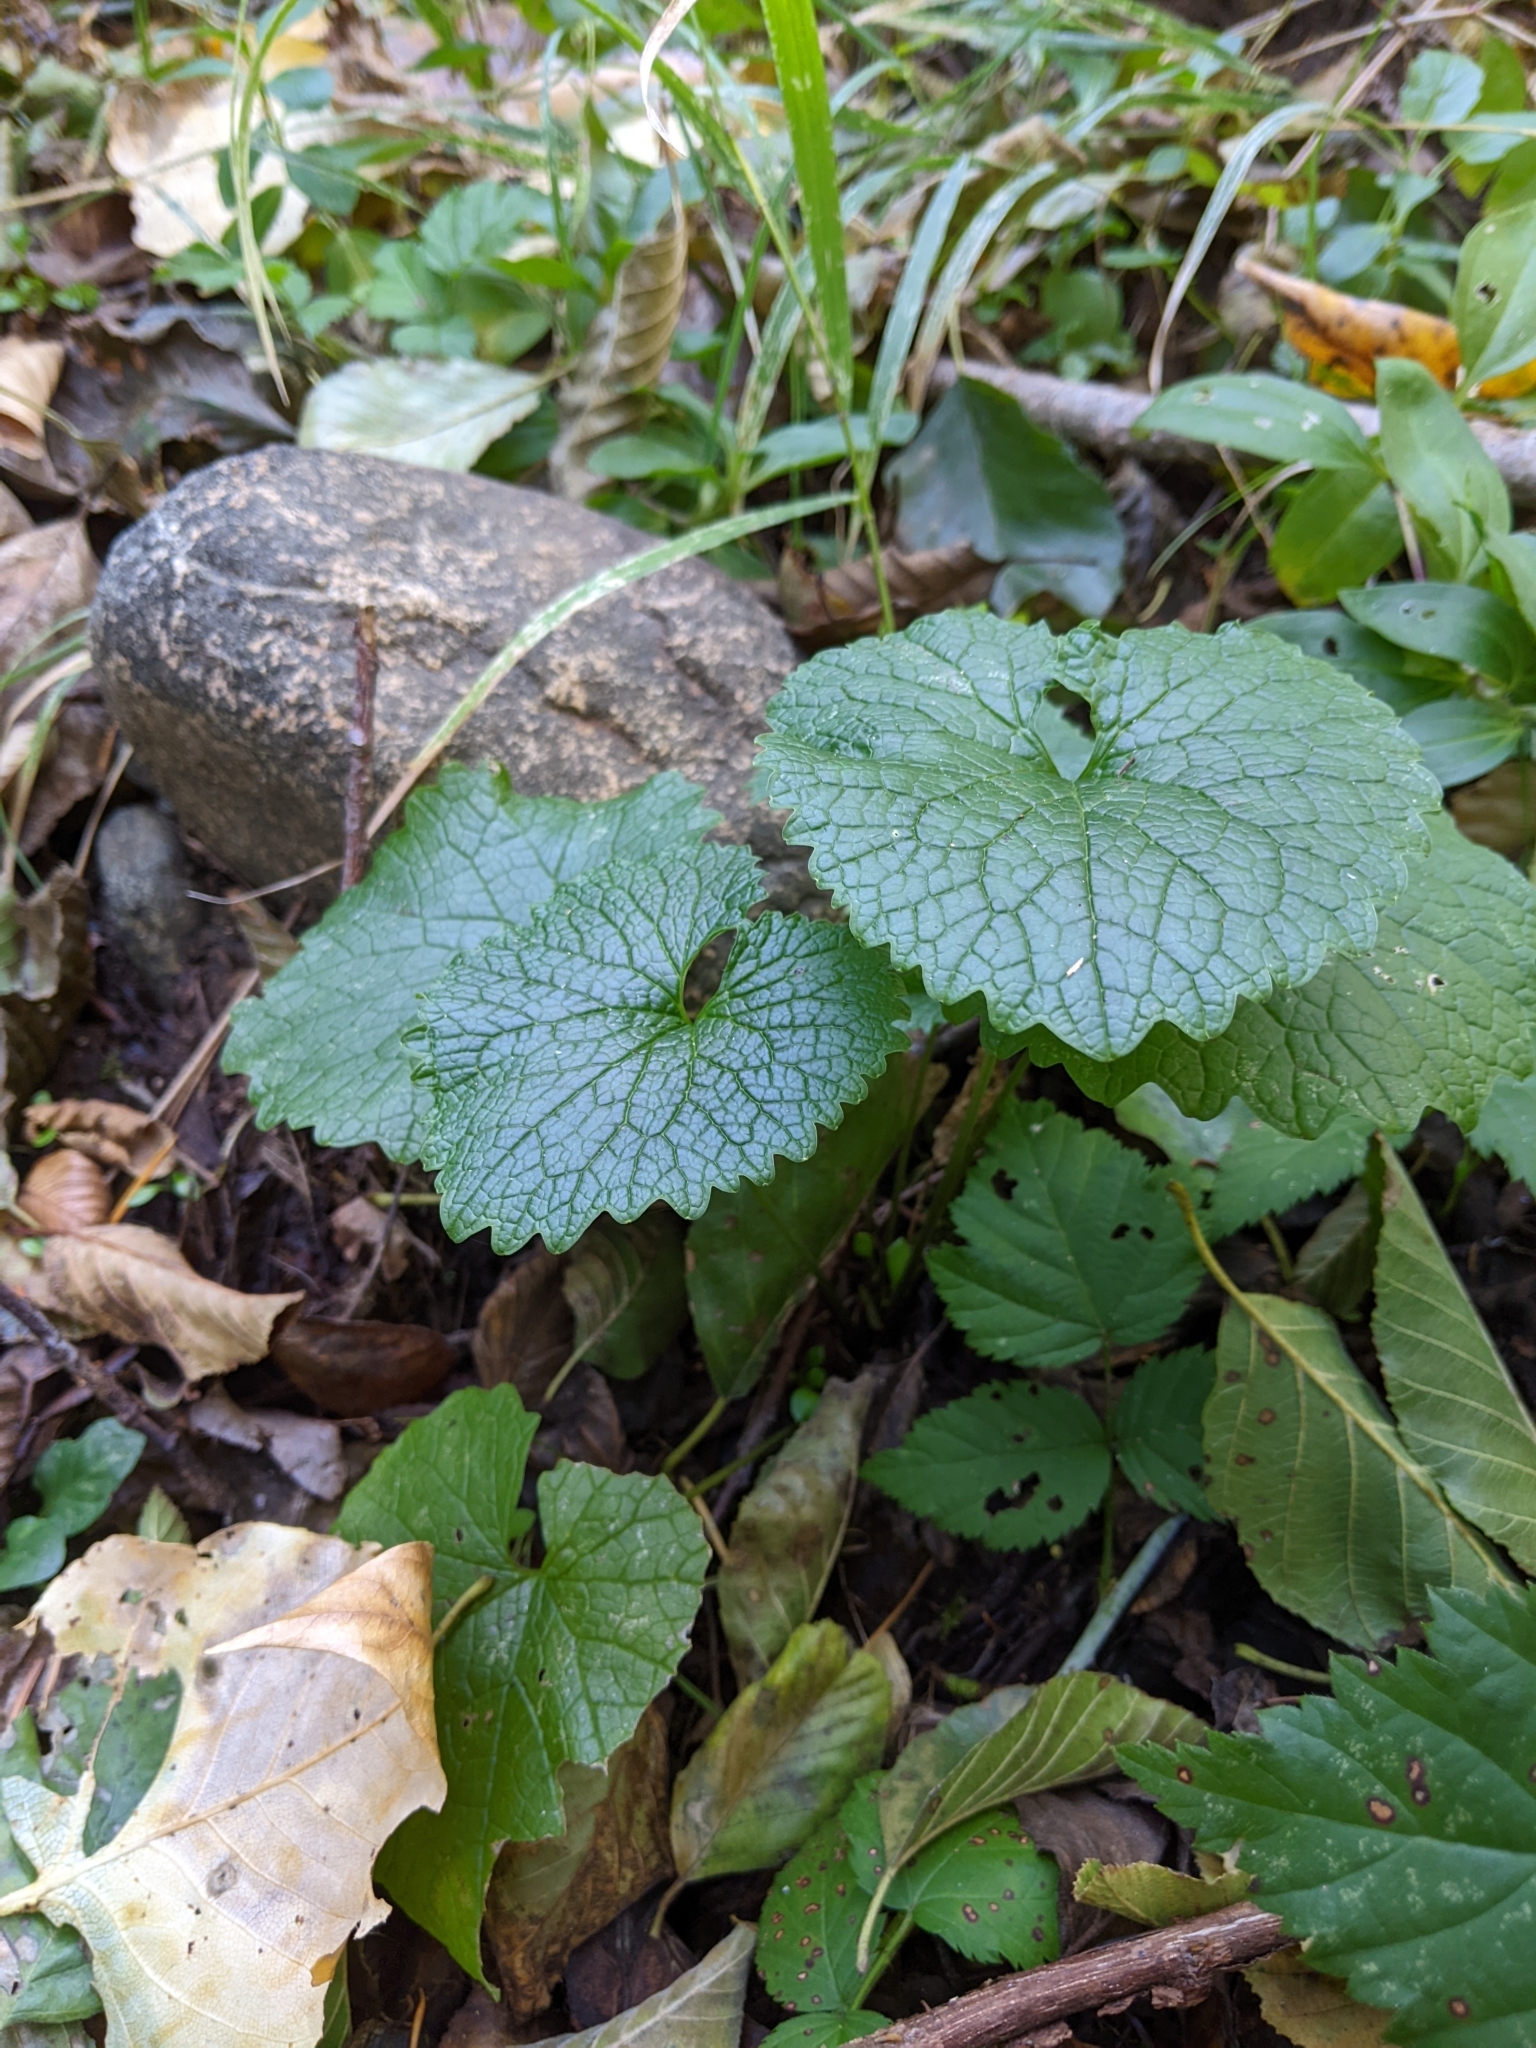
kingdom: Plantae
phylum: Tracheophyta
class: Magnoliopsida
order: Brassicales
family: Brassicaceae
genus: Alliaria
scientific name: Alliaria petiolata
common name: Garlic mustard
